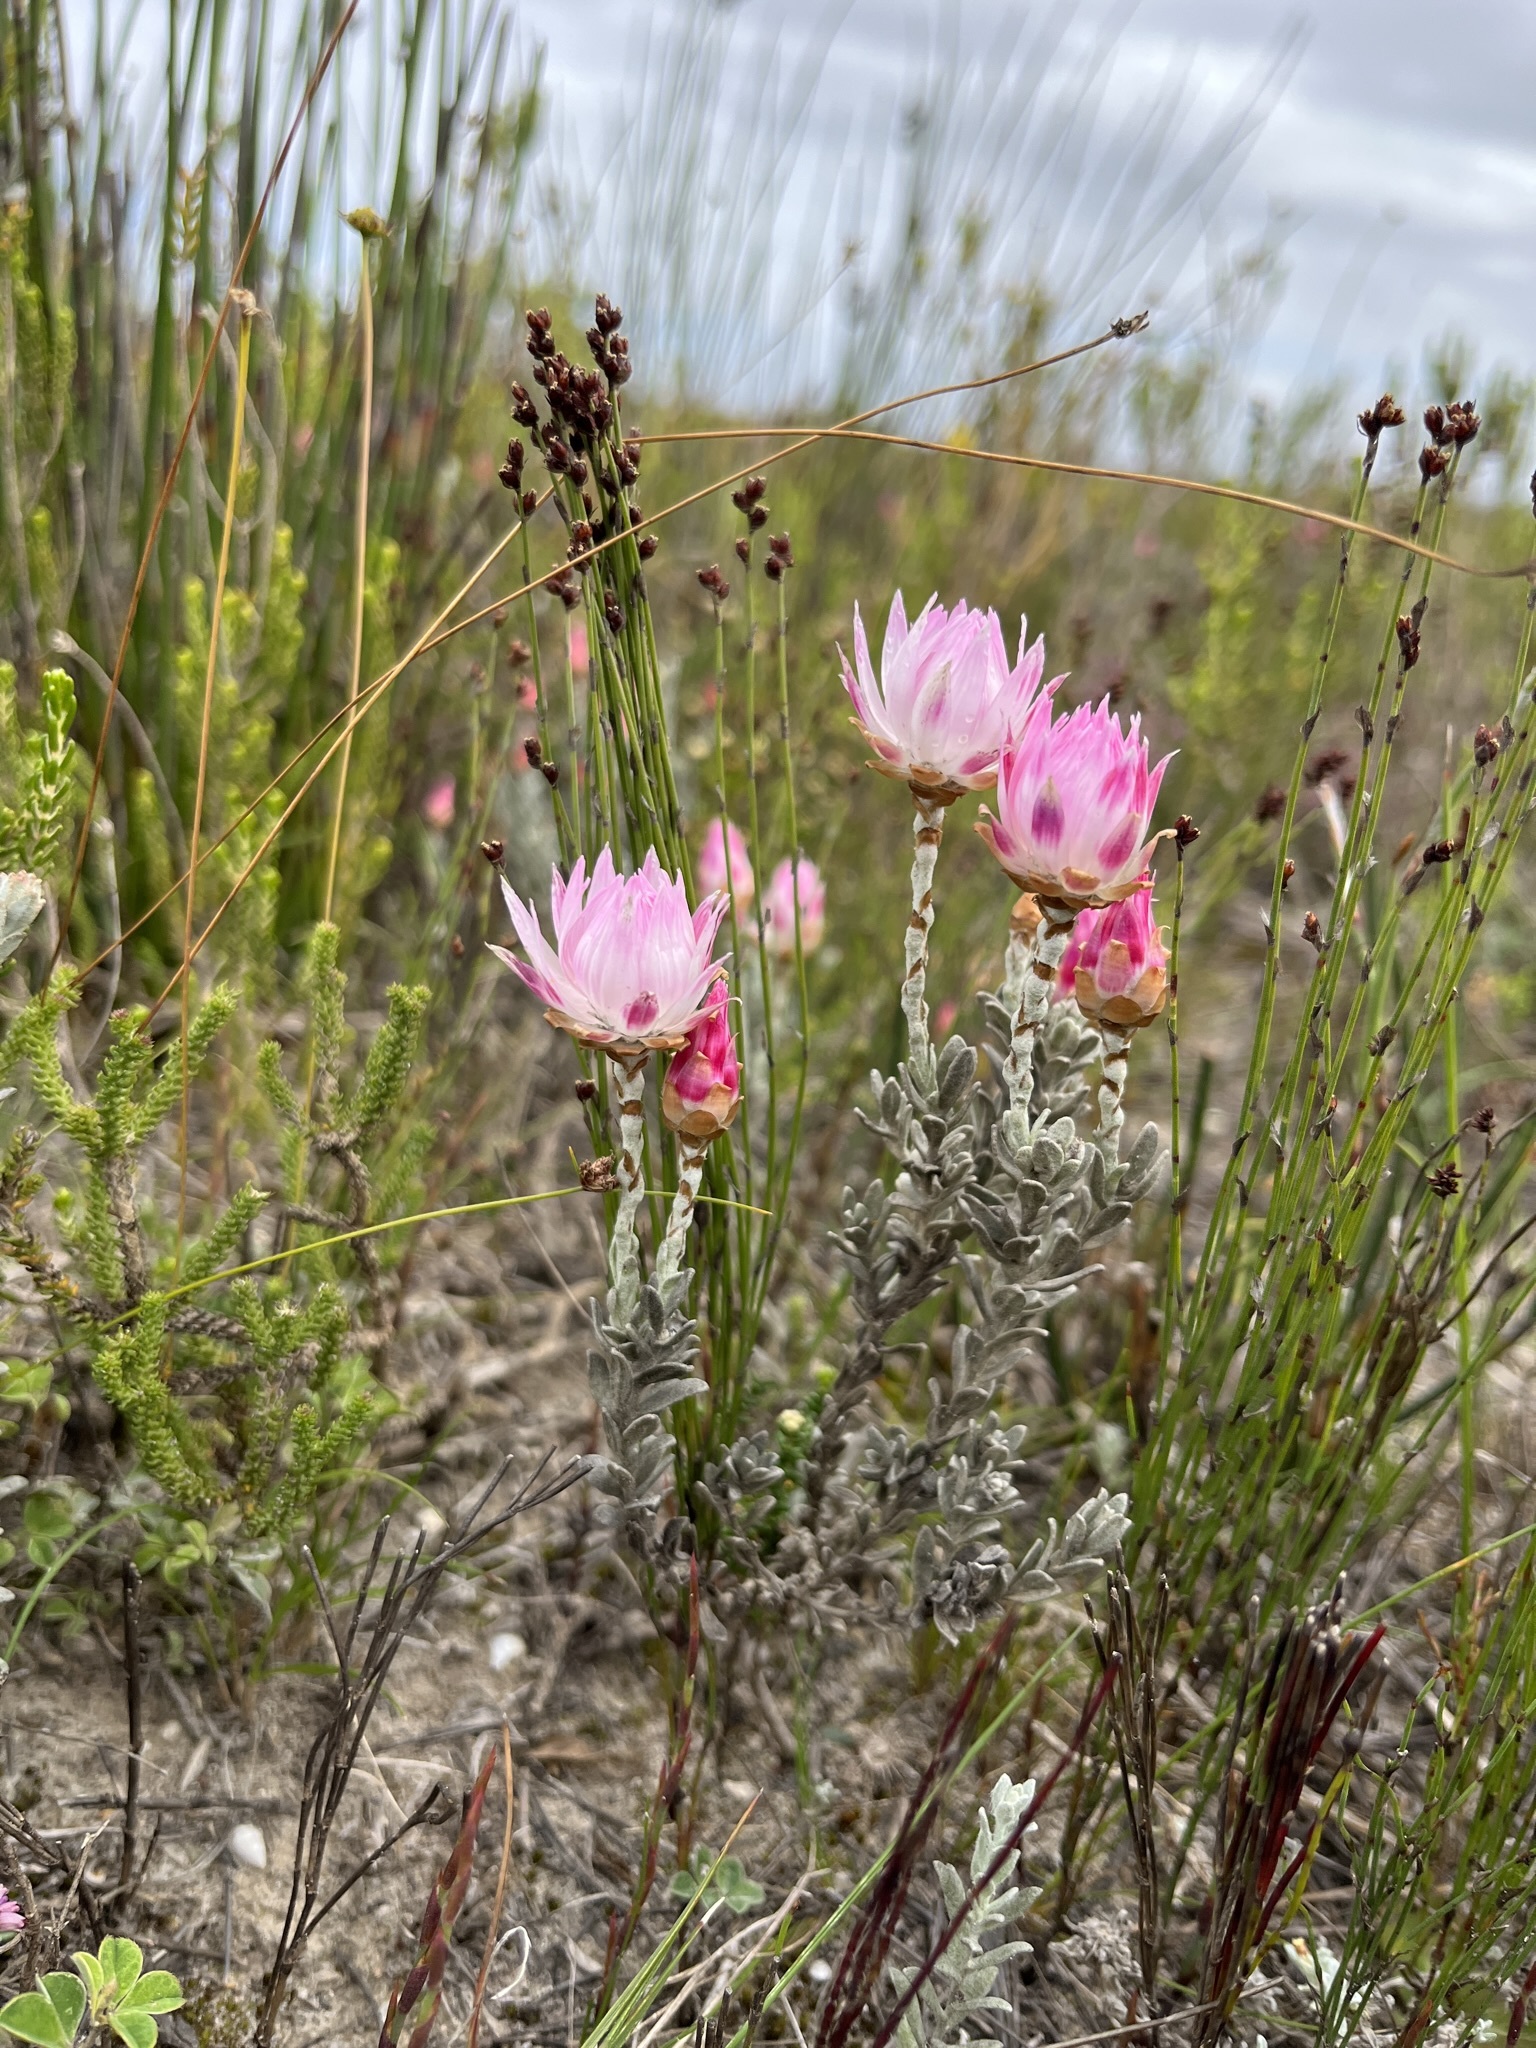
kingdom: Plantae
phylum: Tracheophyta
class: Magnoliopsida
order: Asterales
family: Asteraceae
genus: Syncarpha
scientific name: Syncarpha canescens
